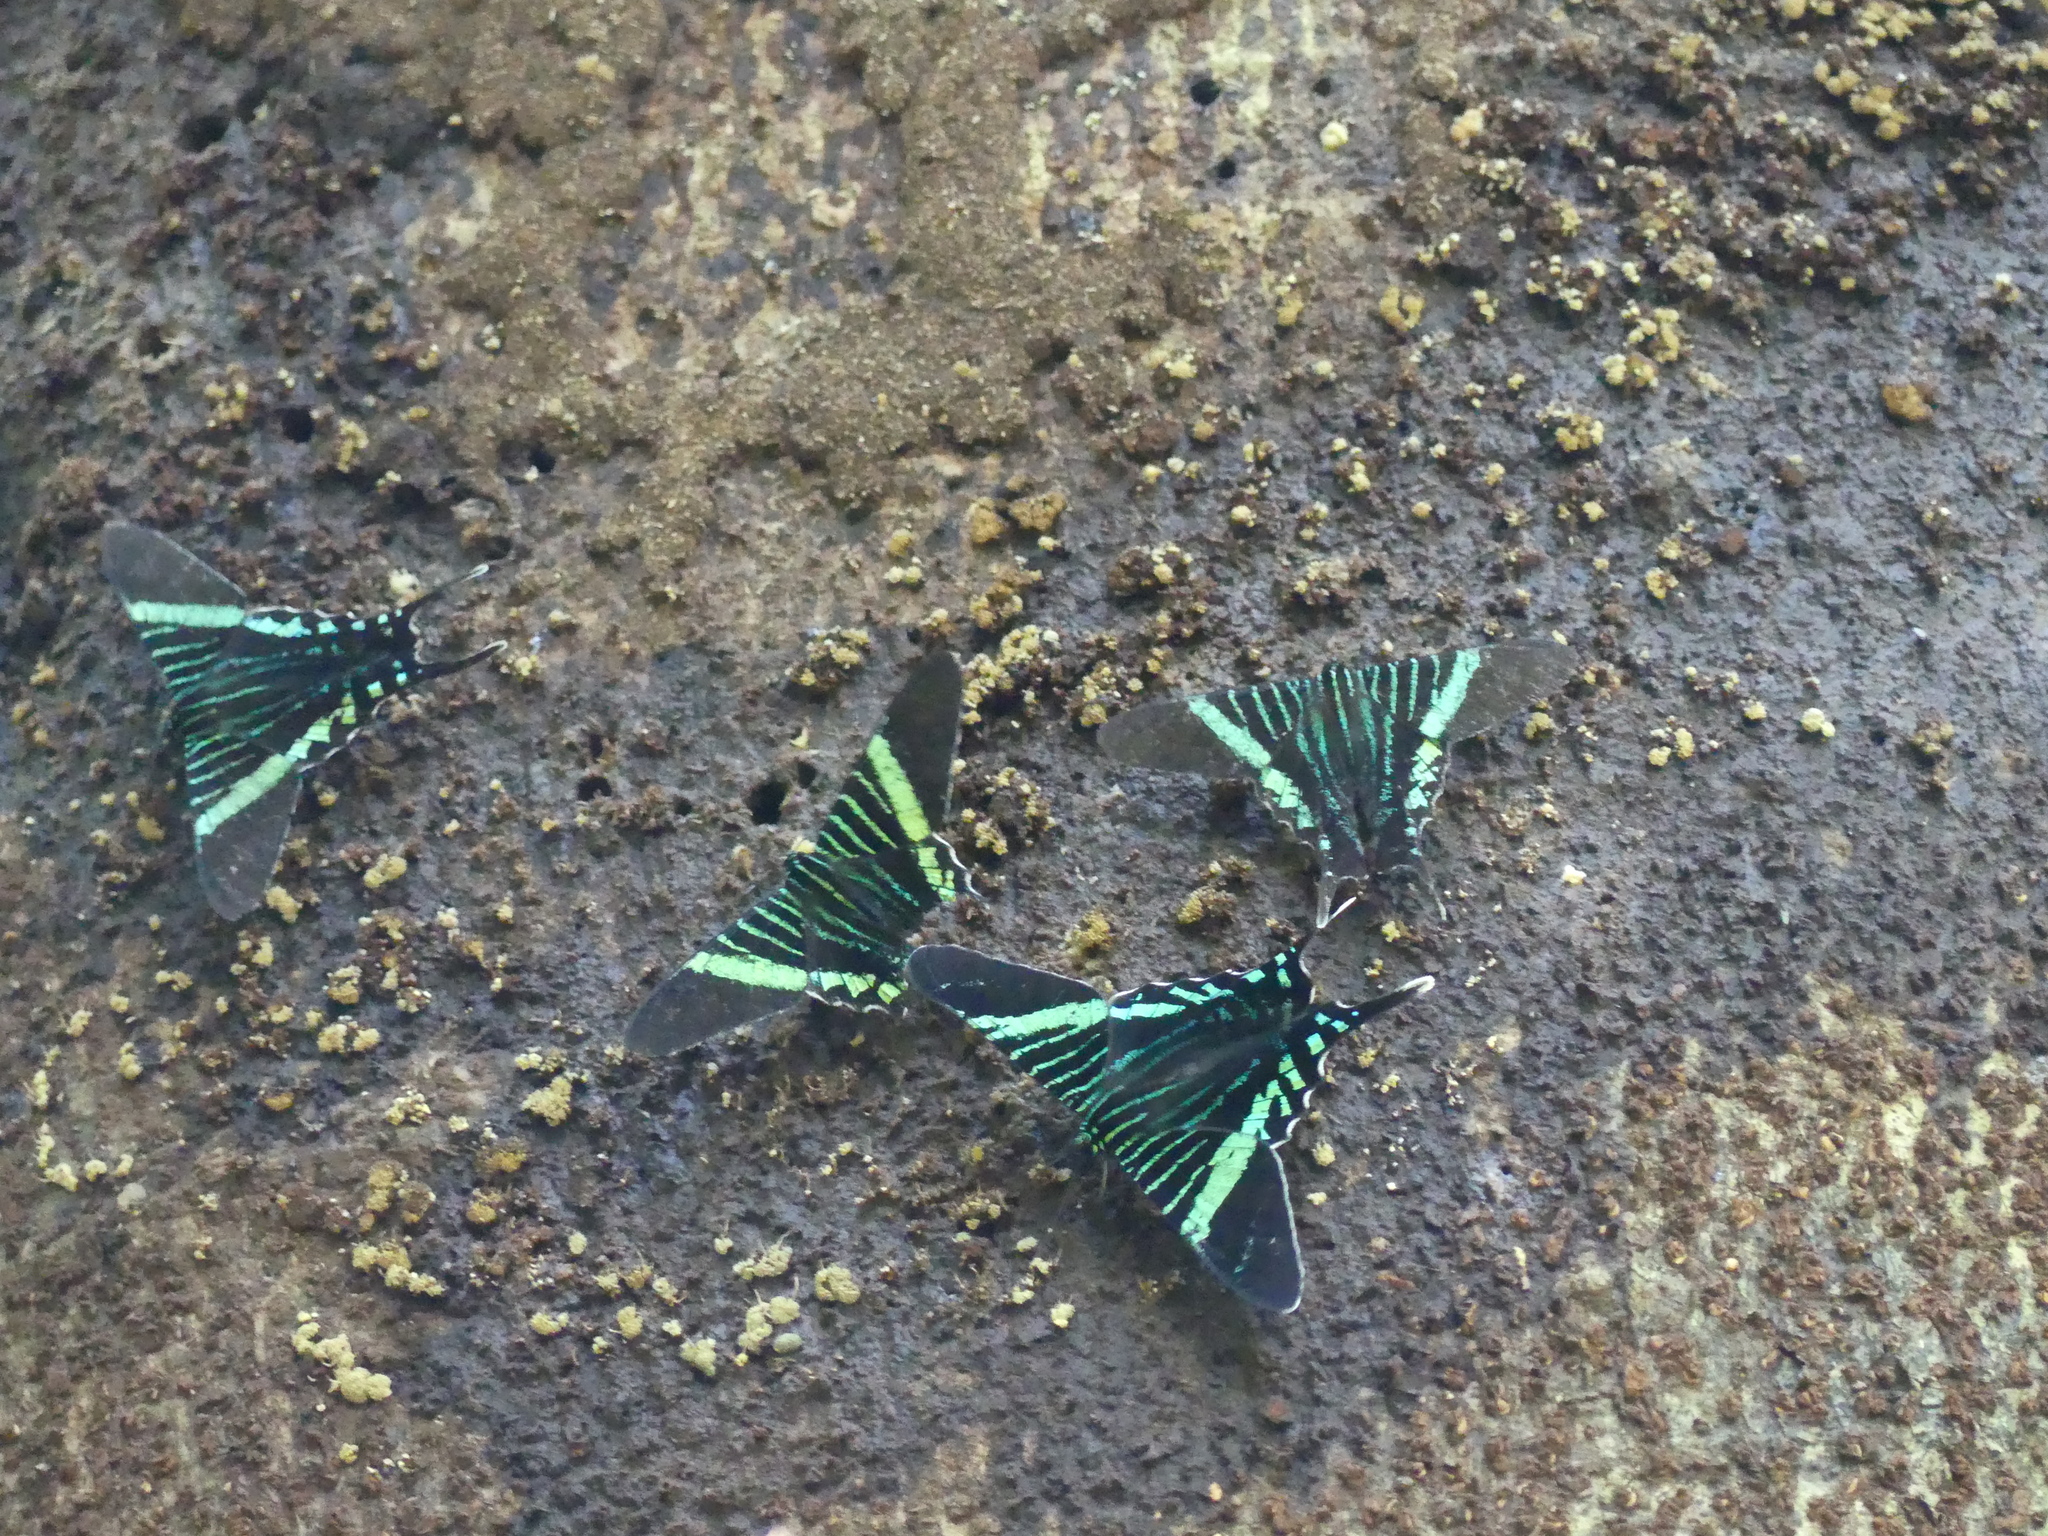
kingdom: Animalia
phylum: Arthropoda
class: Insecta
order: Lepidoptera
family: Uraniidae
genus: Urania
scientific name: Urania fulgens
